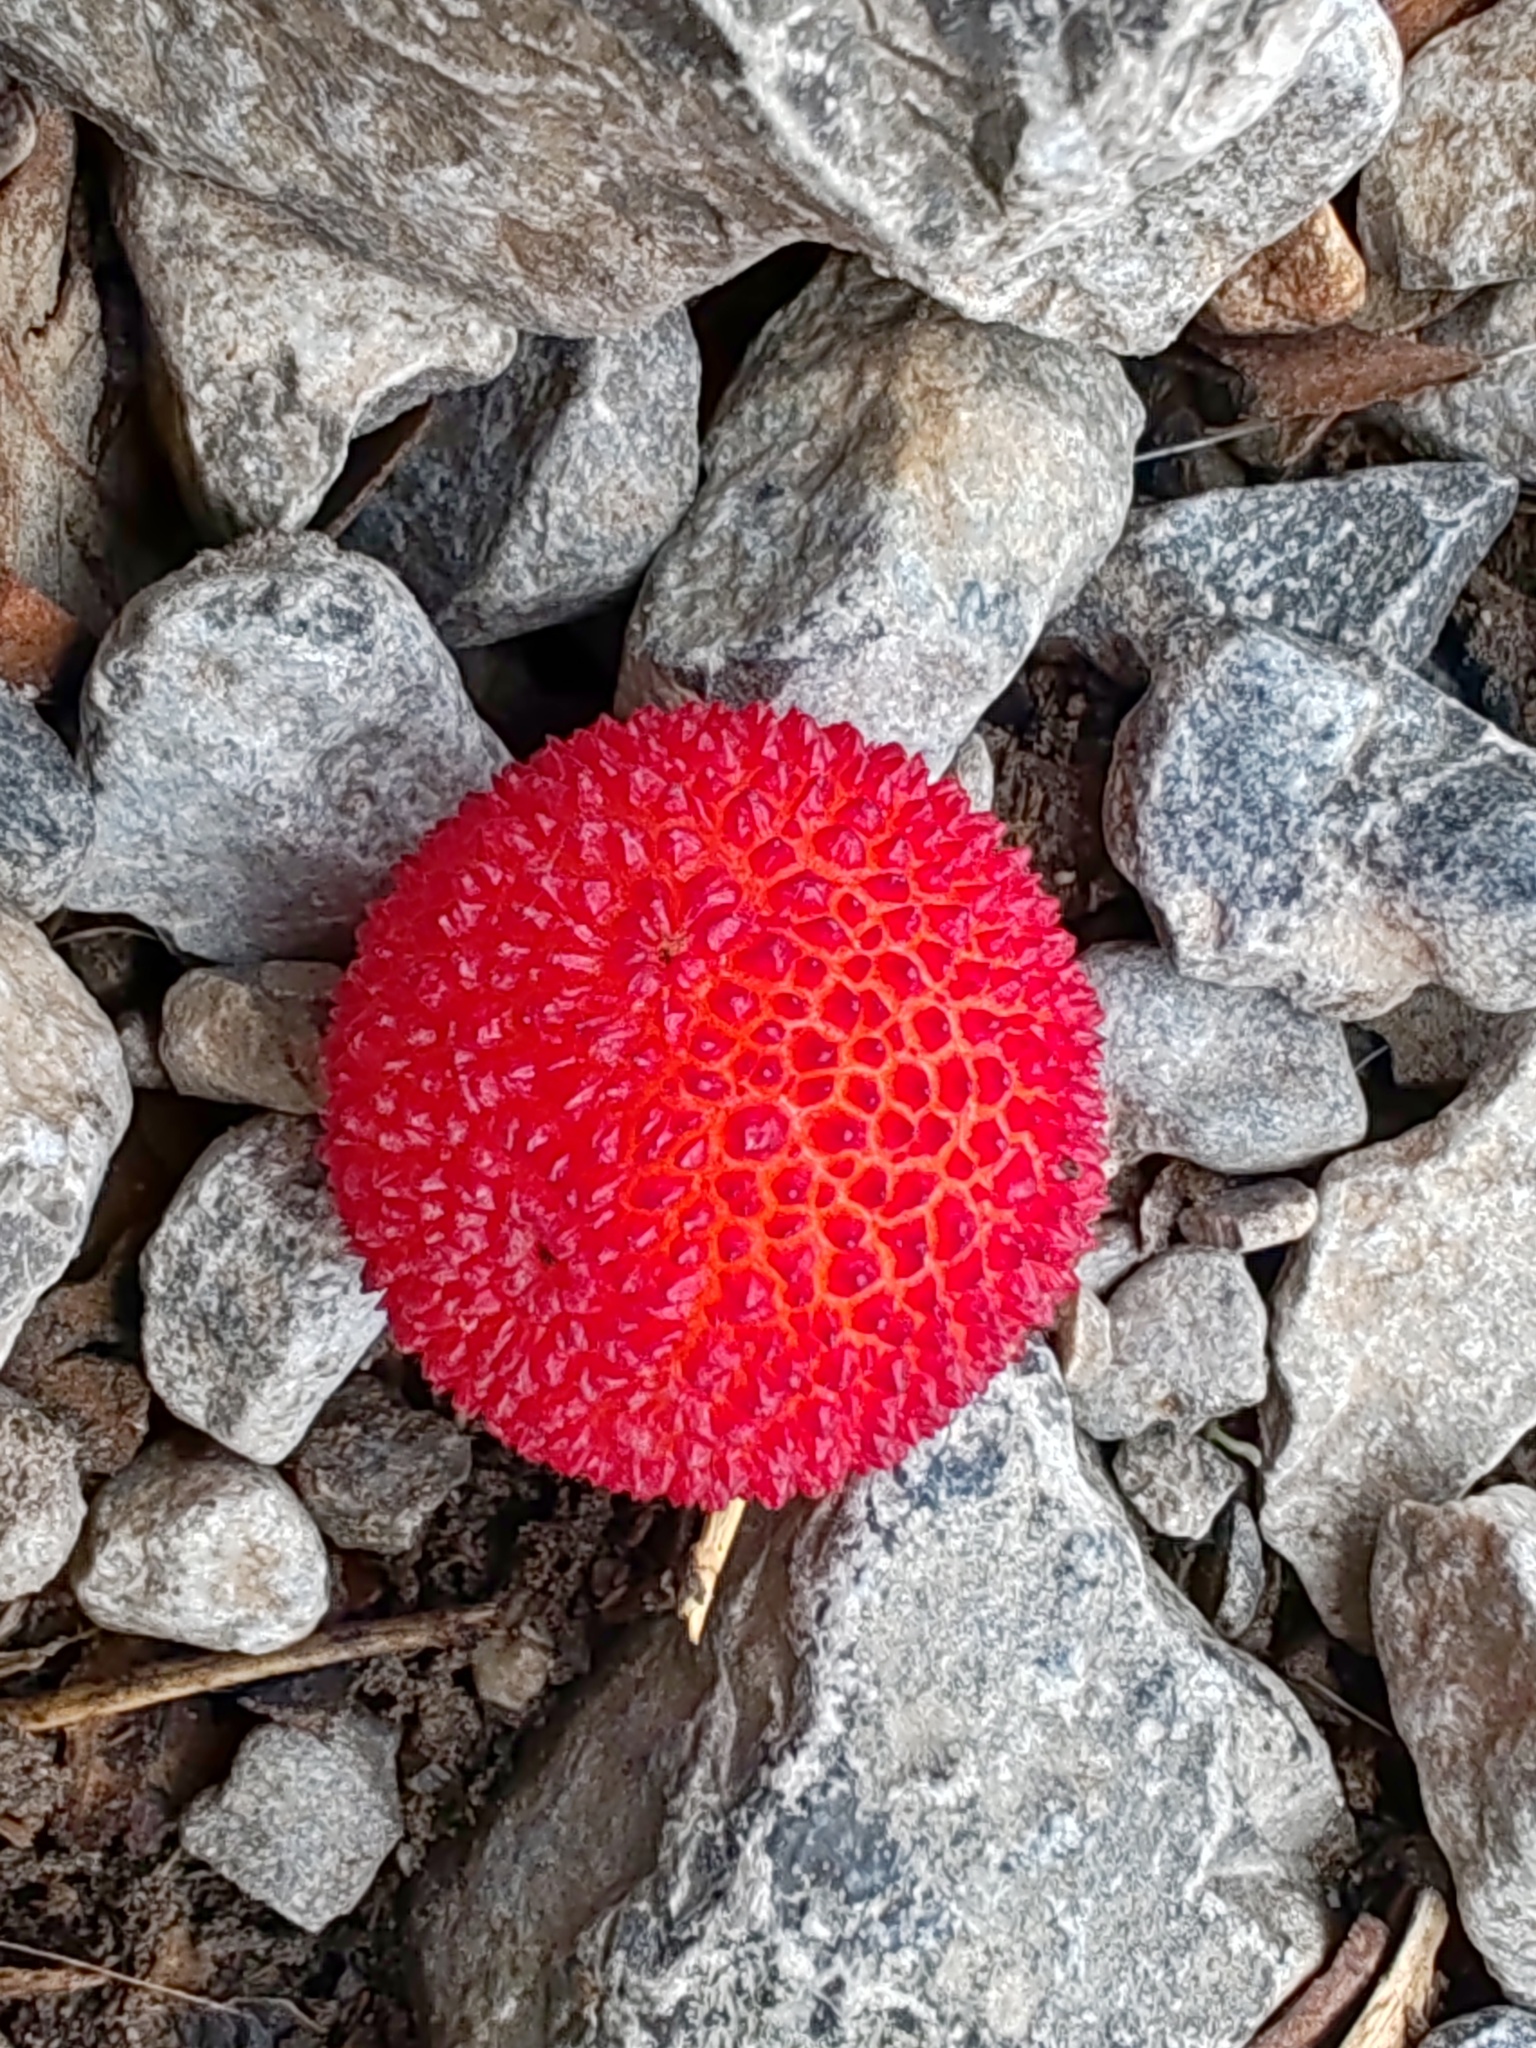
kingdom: Plantae
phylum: Tracheophyta
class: Magnoliopsida
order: Ericales
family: Ericaceae
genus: Arbutus
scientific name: Arbutus unedo
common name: Strawberry-tree
